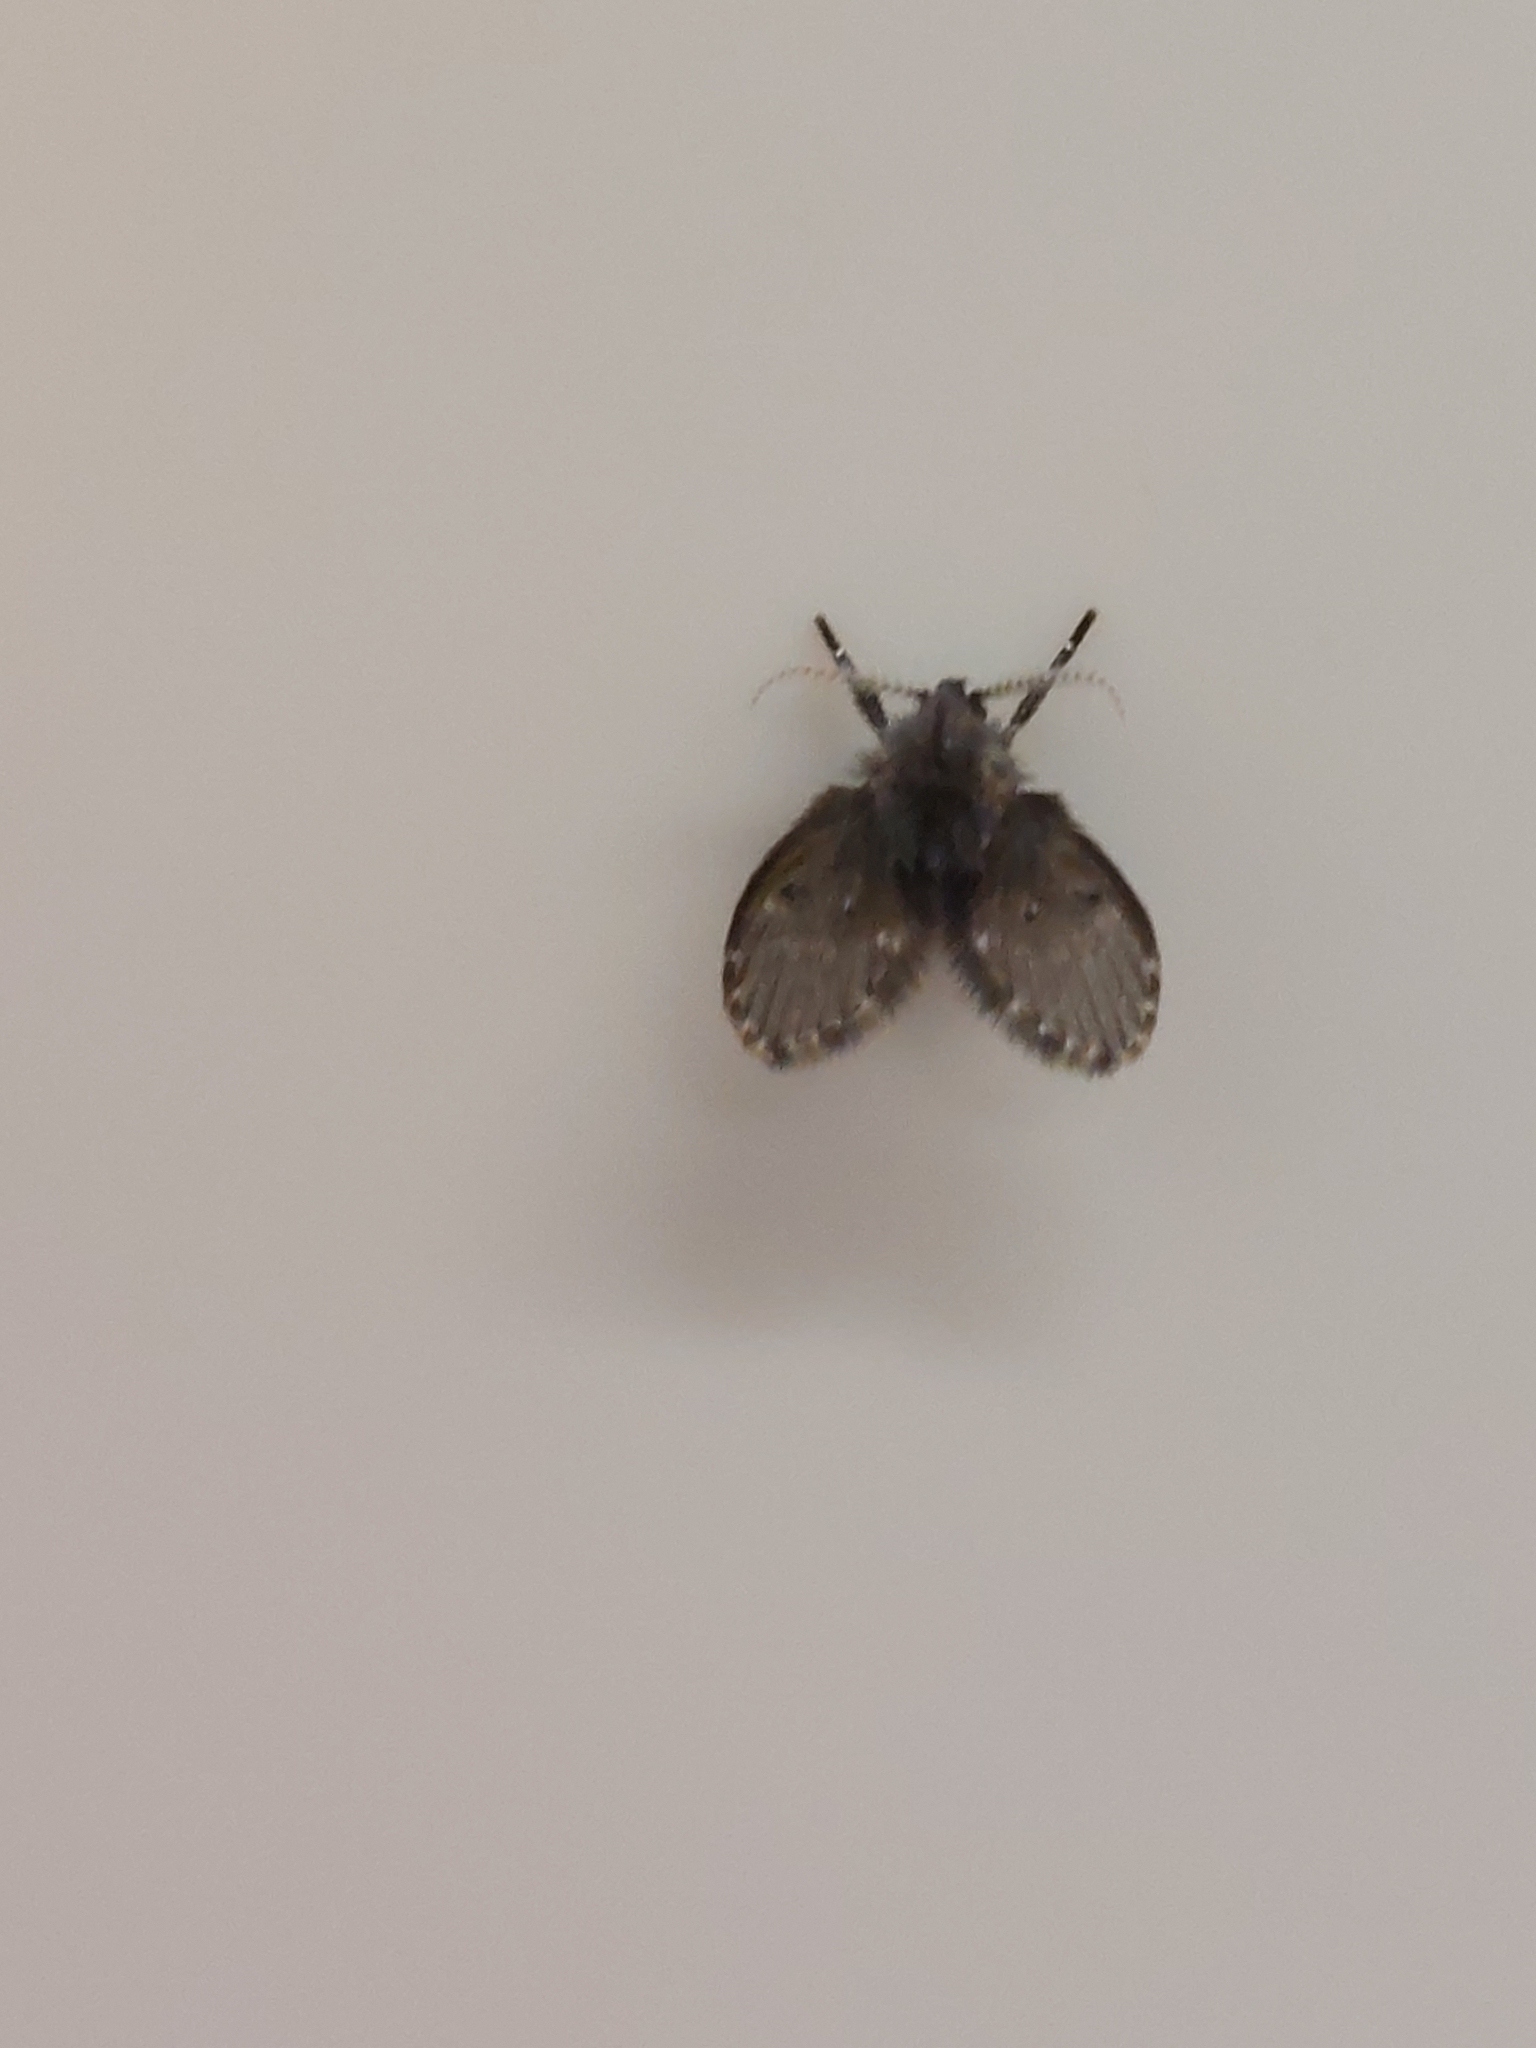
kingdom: Animalia
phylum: Arthropoda
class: Insecta
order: Diptera
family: Psychodidae
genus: Clogmia
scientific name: Clogmia albipunctatus
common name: White-spotted moth fly
